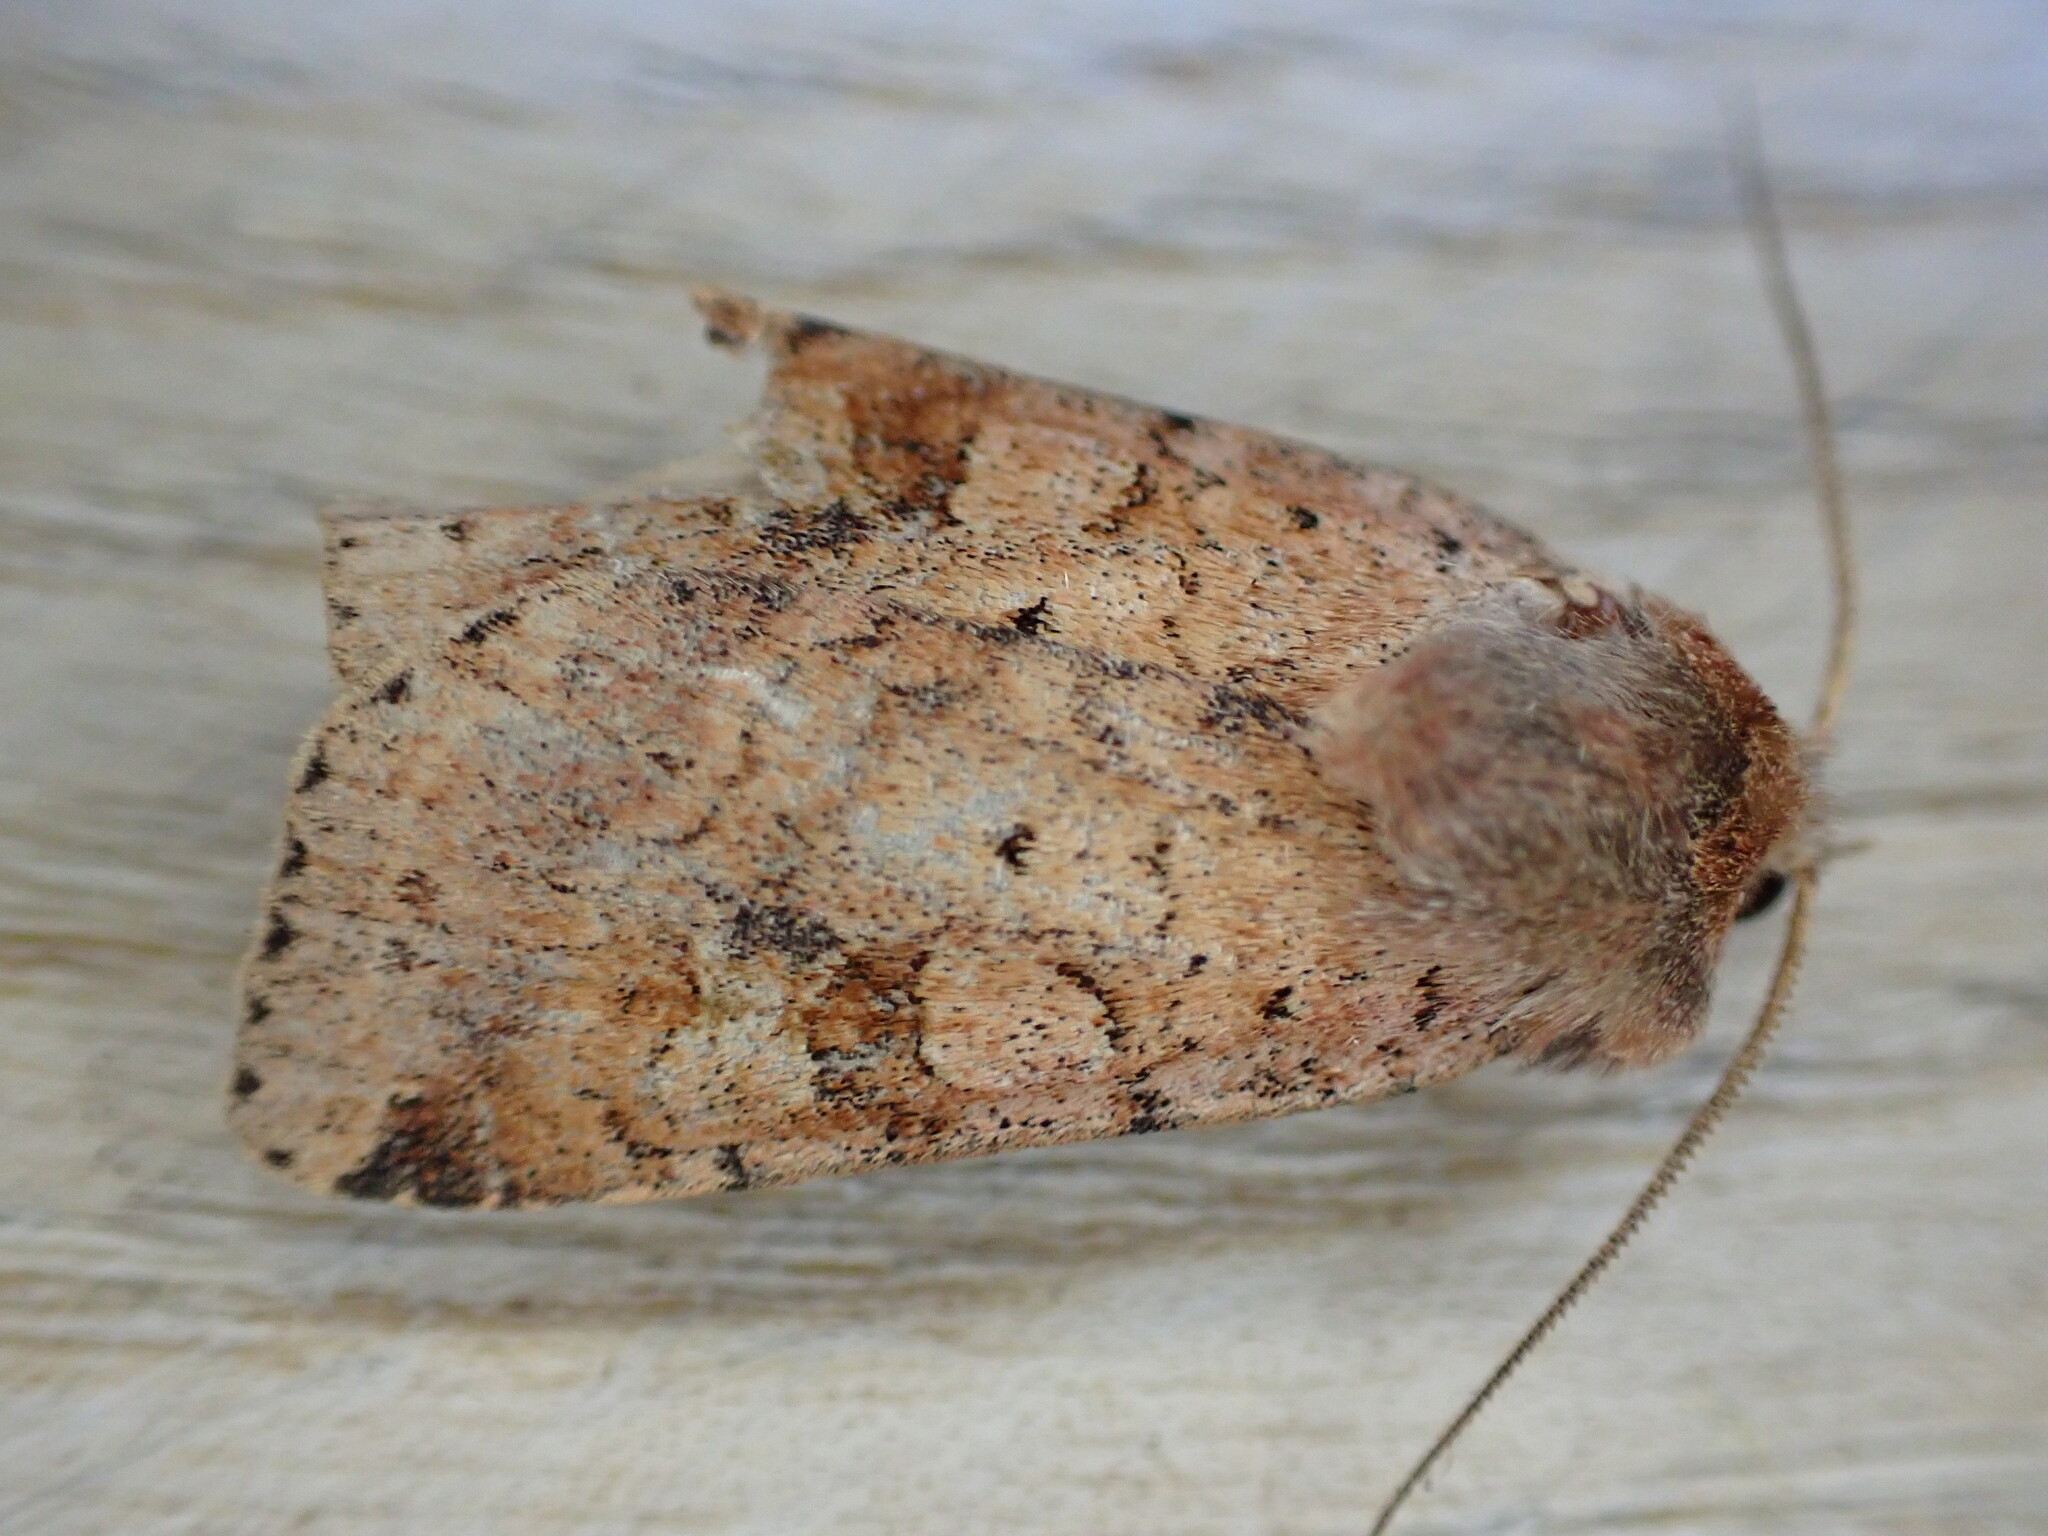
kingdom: Animalia
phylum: Arthropoda
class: Insecta
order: Lepidoptera
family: Noctuidae
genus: Diarsia
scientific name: Diarsia mendica
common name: Ingrailed clay
